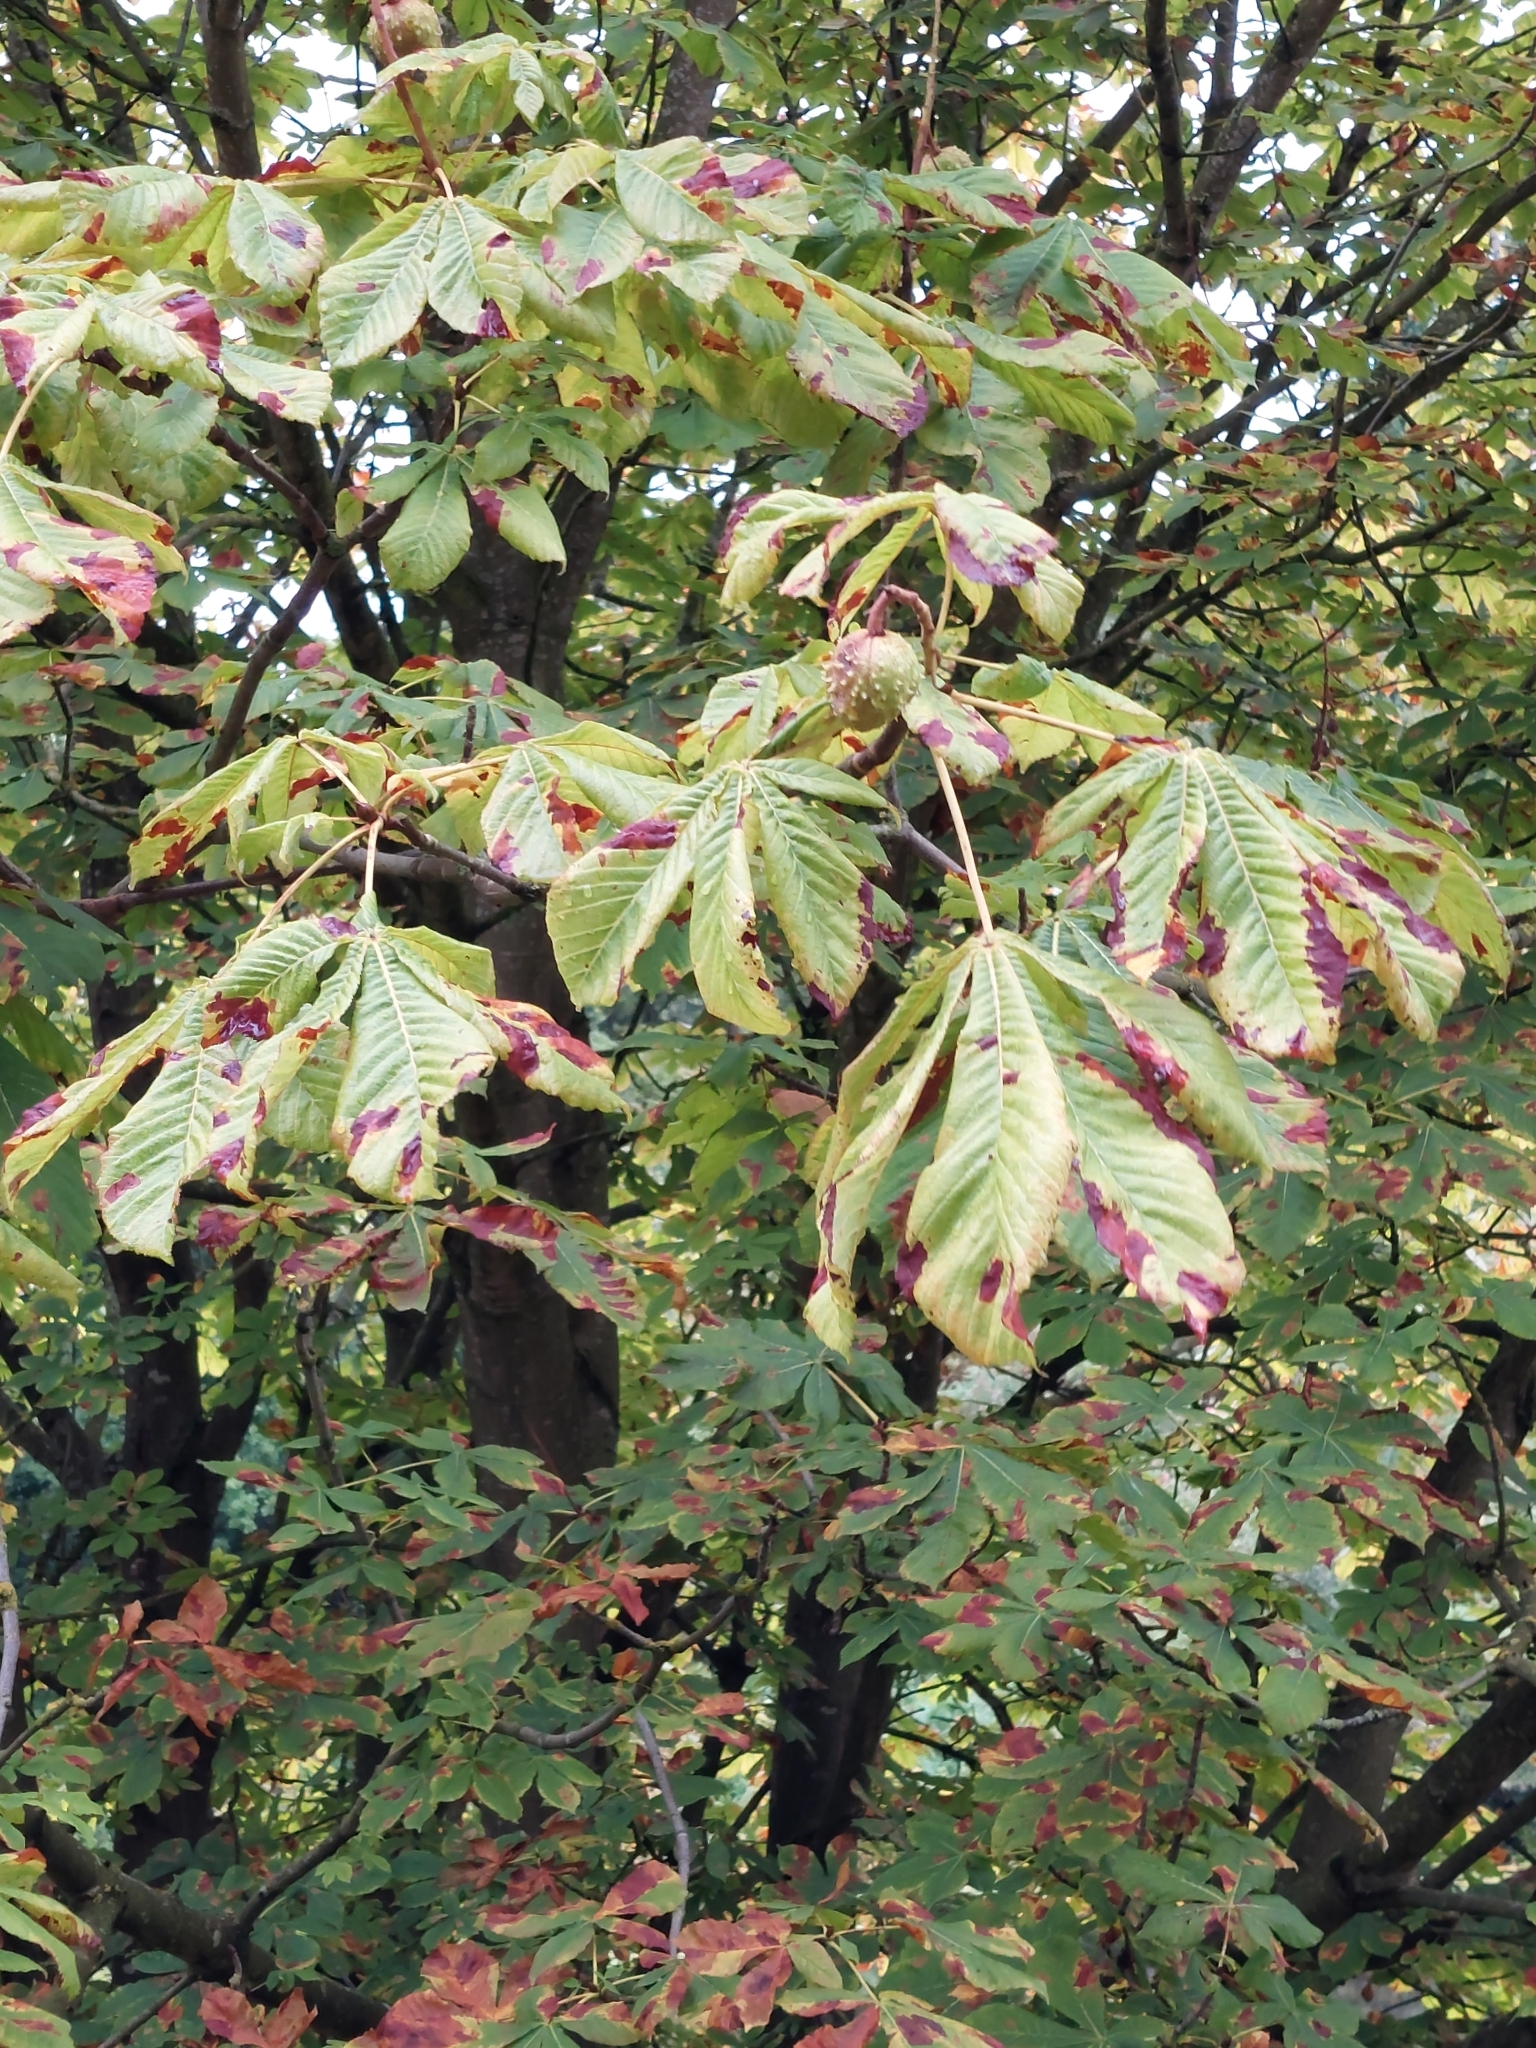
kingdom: Plantae
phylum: Tracheophyta
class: Magnoliopsida
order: Sapindales
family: Sapindaceae
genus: Aesculus
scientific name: Aesculus hippocastanum
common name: Horse-chestnut
